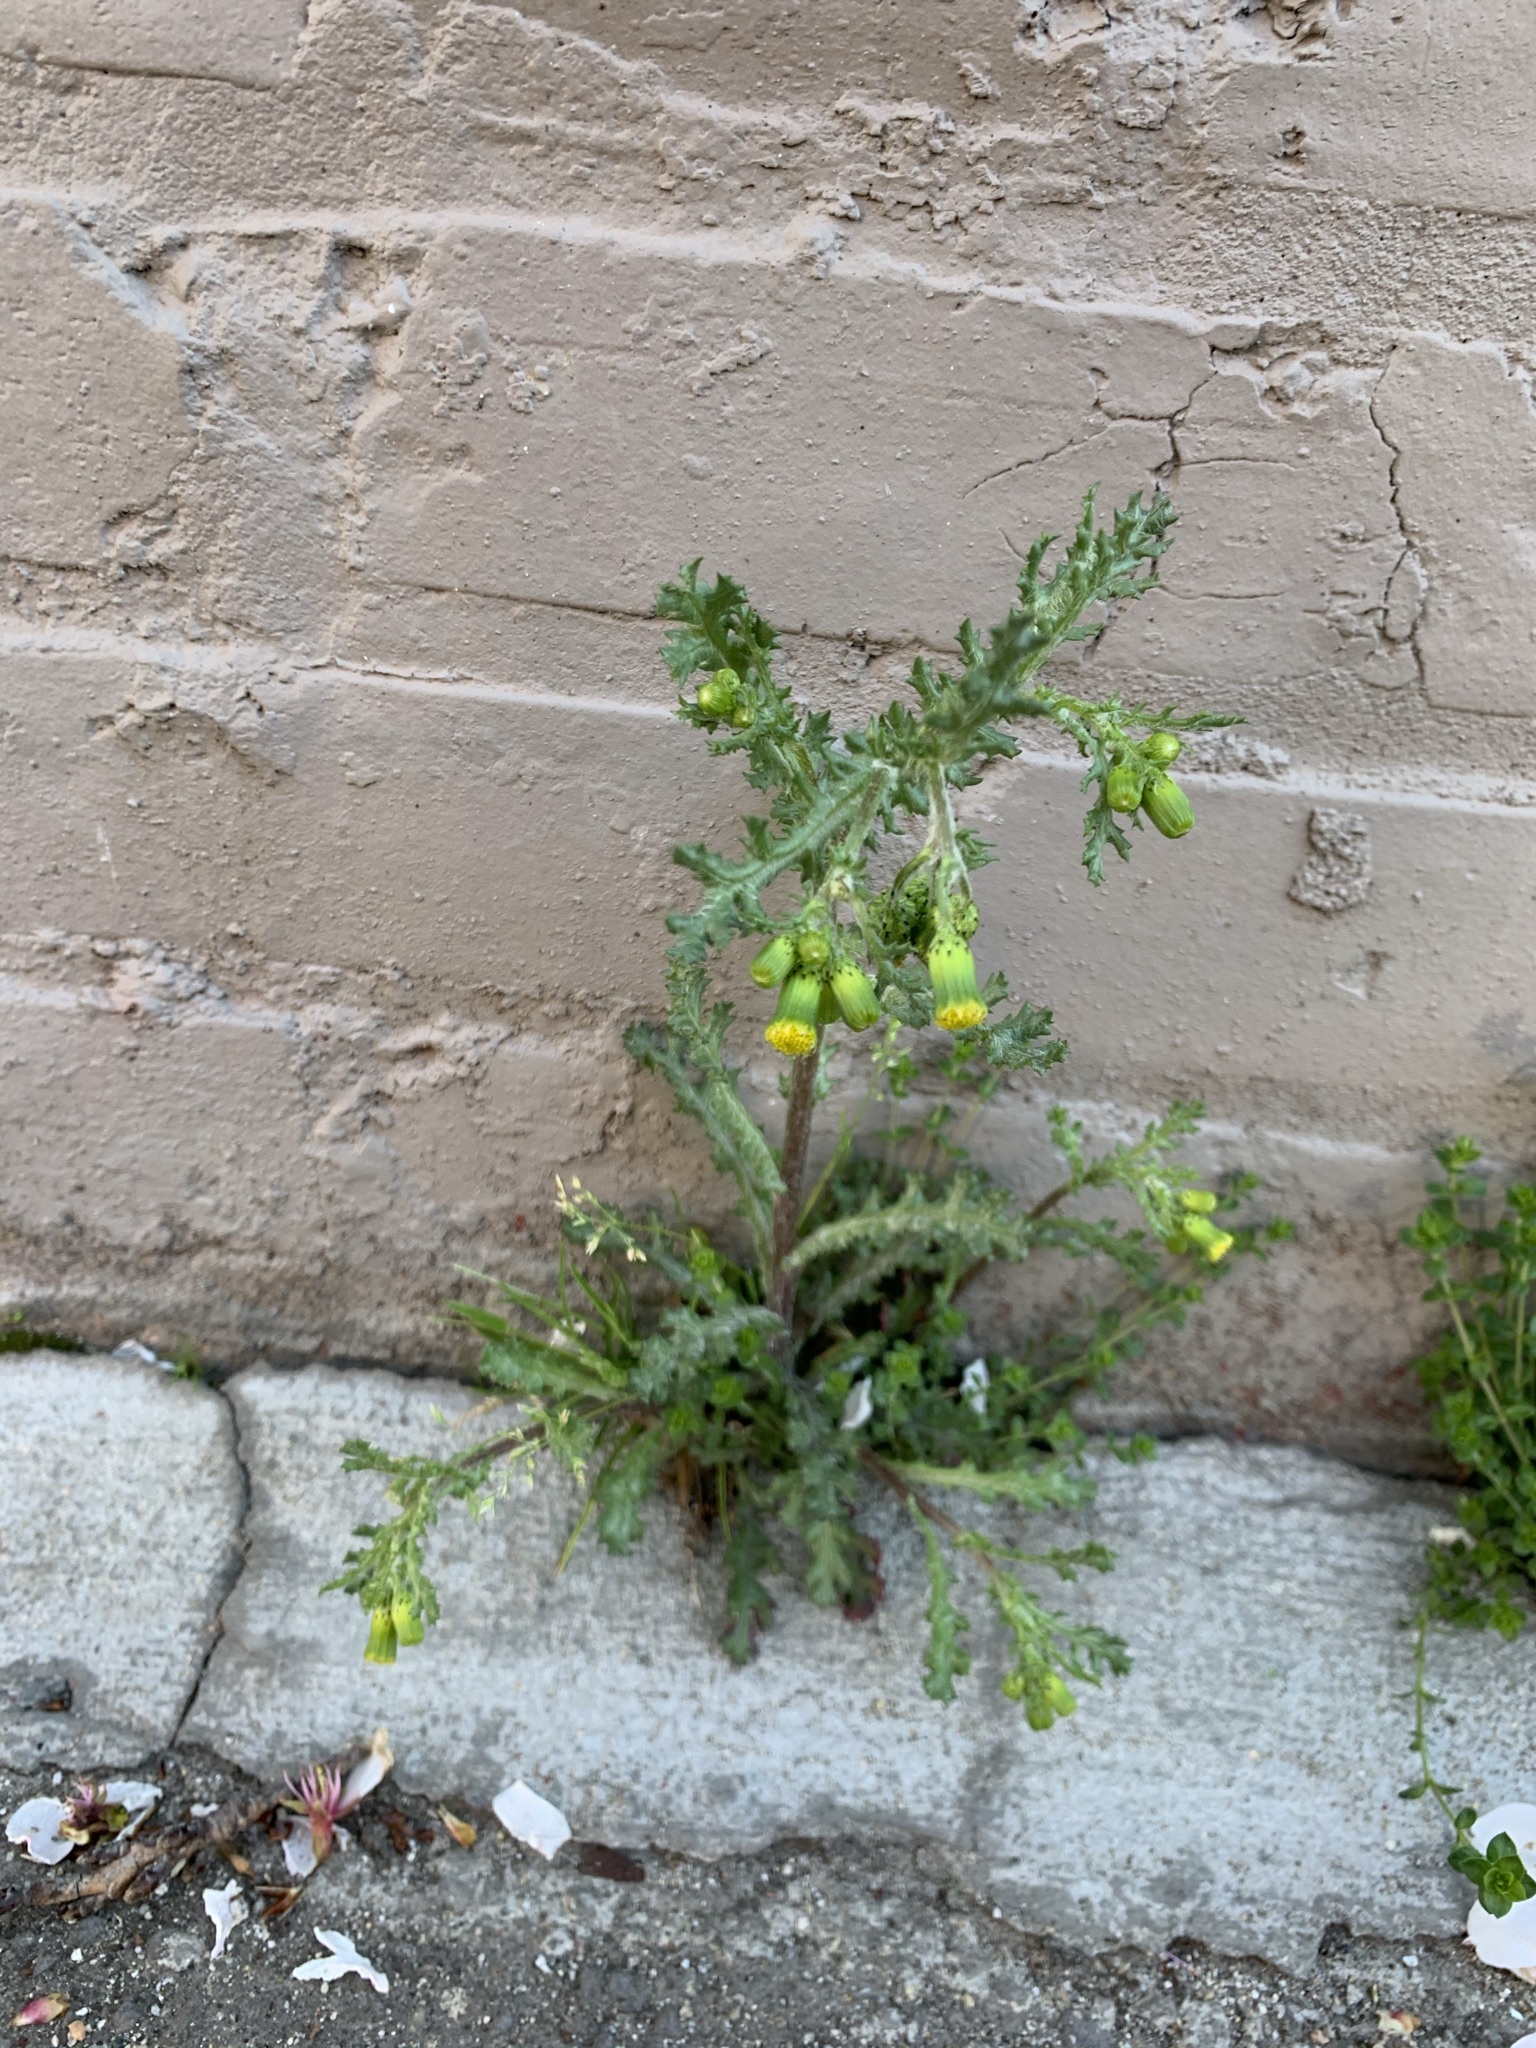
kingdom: Plantae
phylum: Tracheophyta
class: Magnoliopsida
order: Asterales
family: Asteraceae
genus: Senecio
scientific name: Senecio vulgaris
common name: Old-man-in-the-spring
